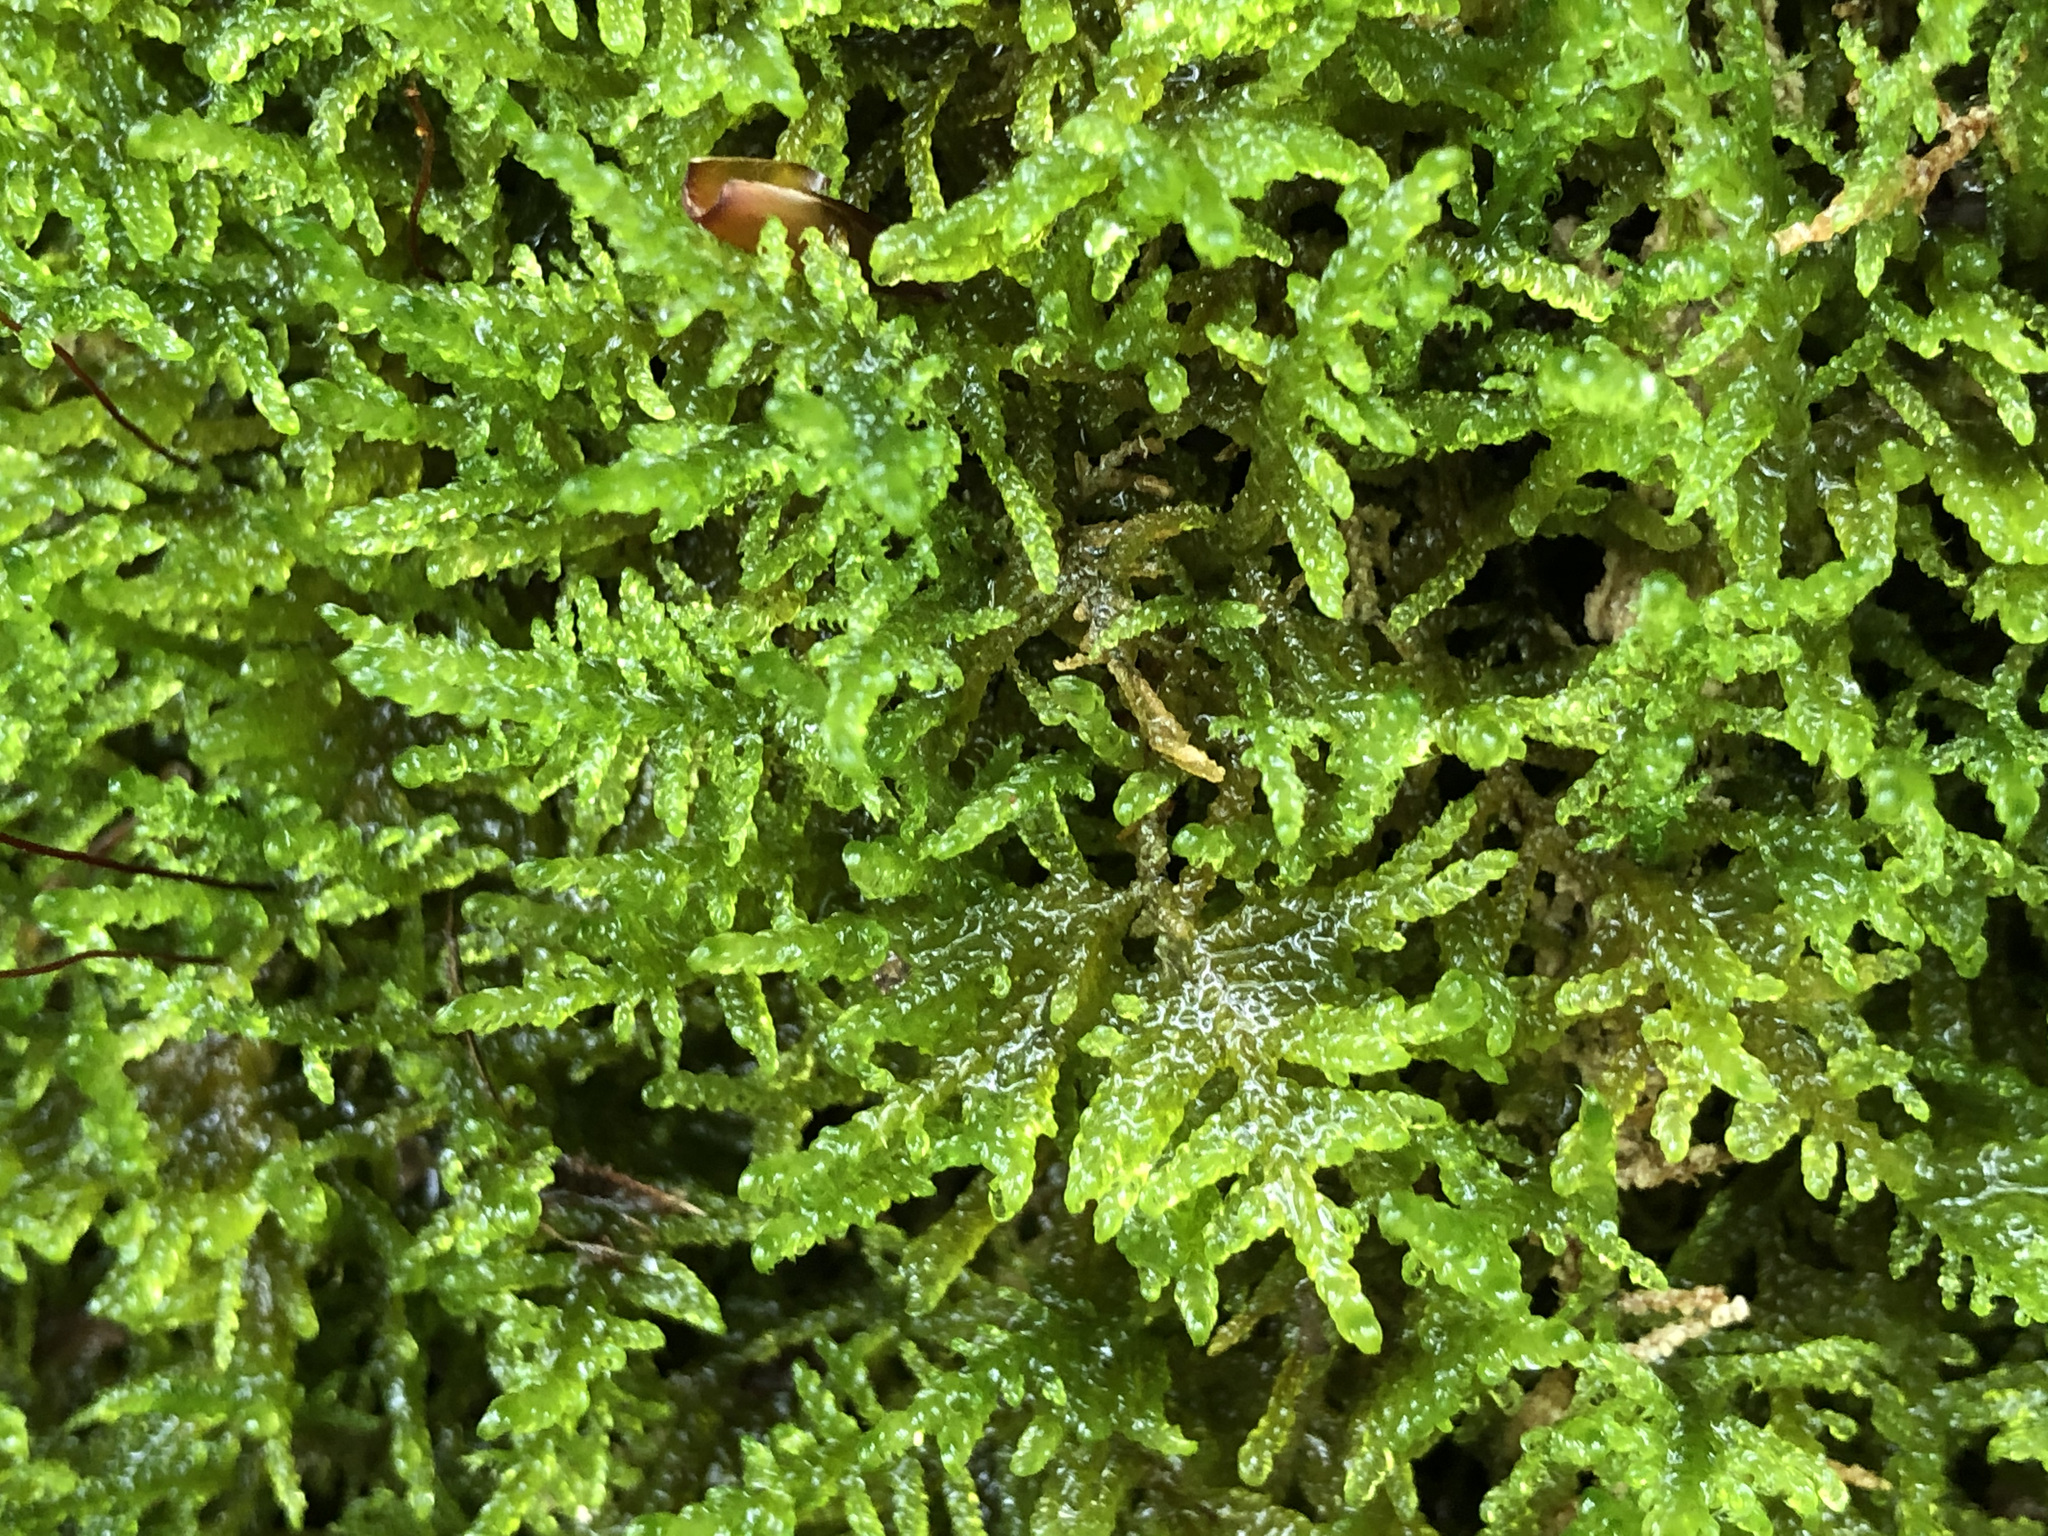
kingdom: Plantae
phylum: Bryophyta
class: Bryopsida
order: Hypnales
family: Amblystegiaceae
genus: Palustriella
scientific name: Palustriella commutata
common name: Curled hook-moss
